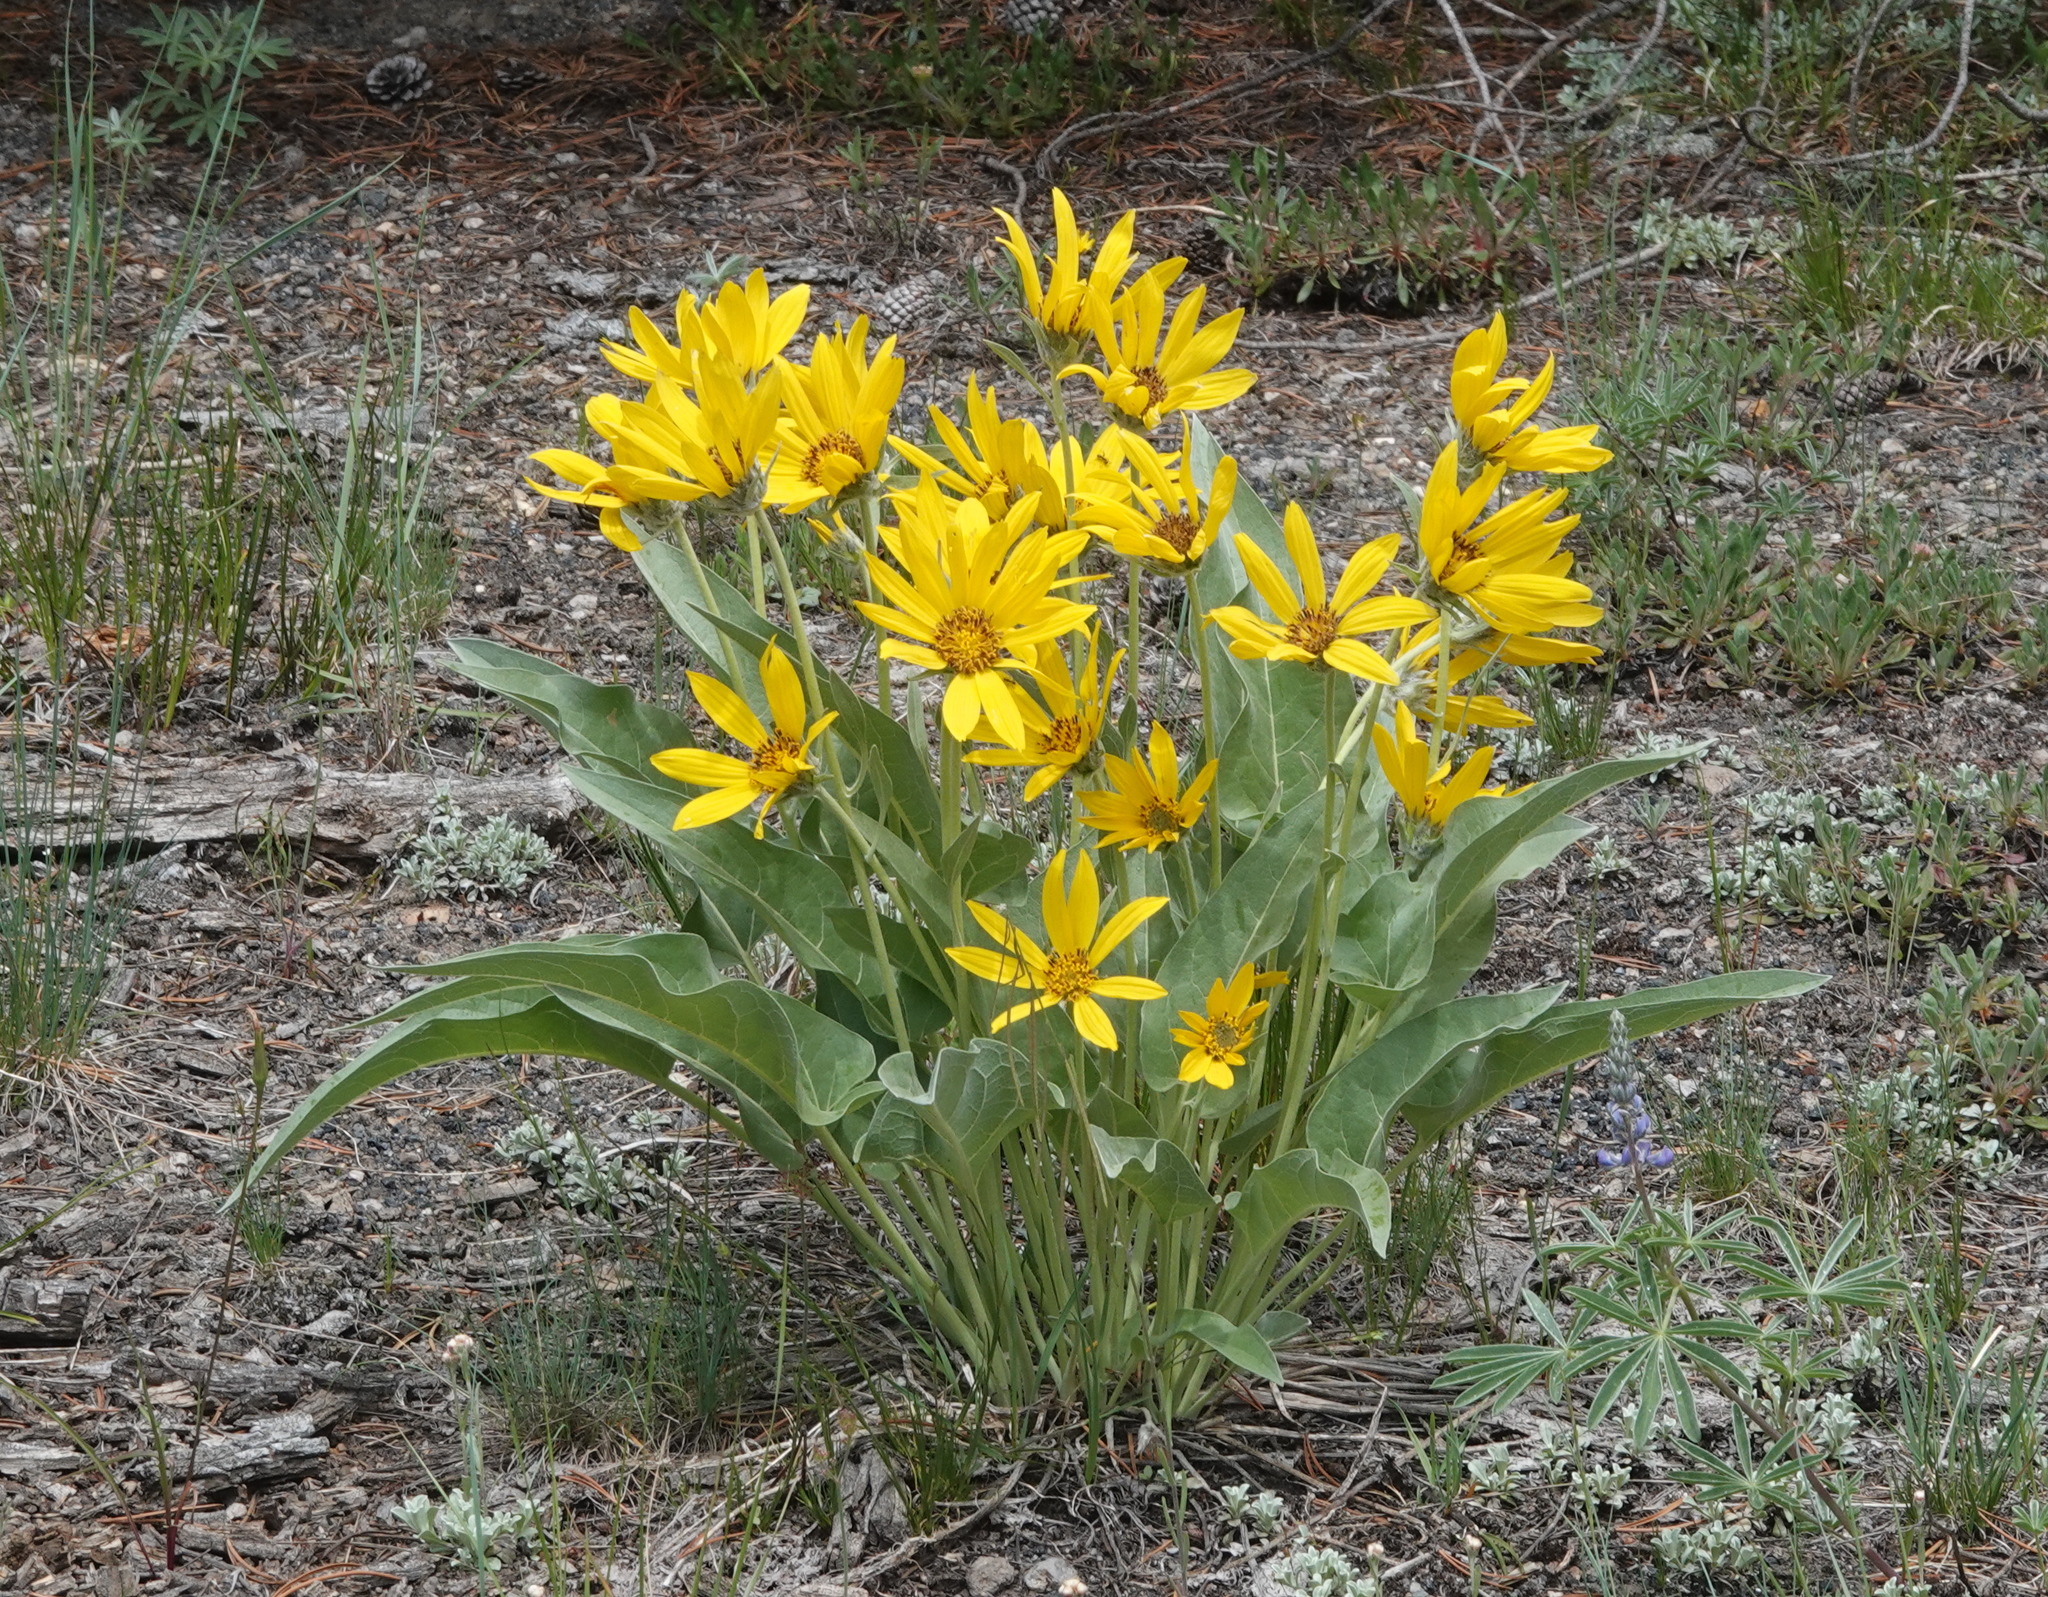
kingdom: Plantae
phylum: Tracheophyta
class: Magnoliopsida
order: Asterales
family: Asteraceae
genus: Wyethia
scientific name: Wyethia sagittata
